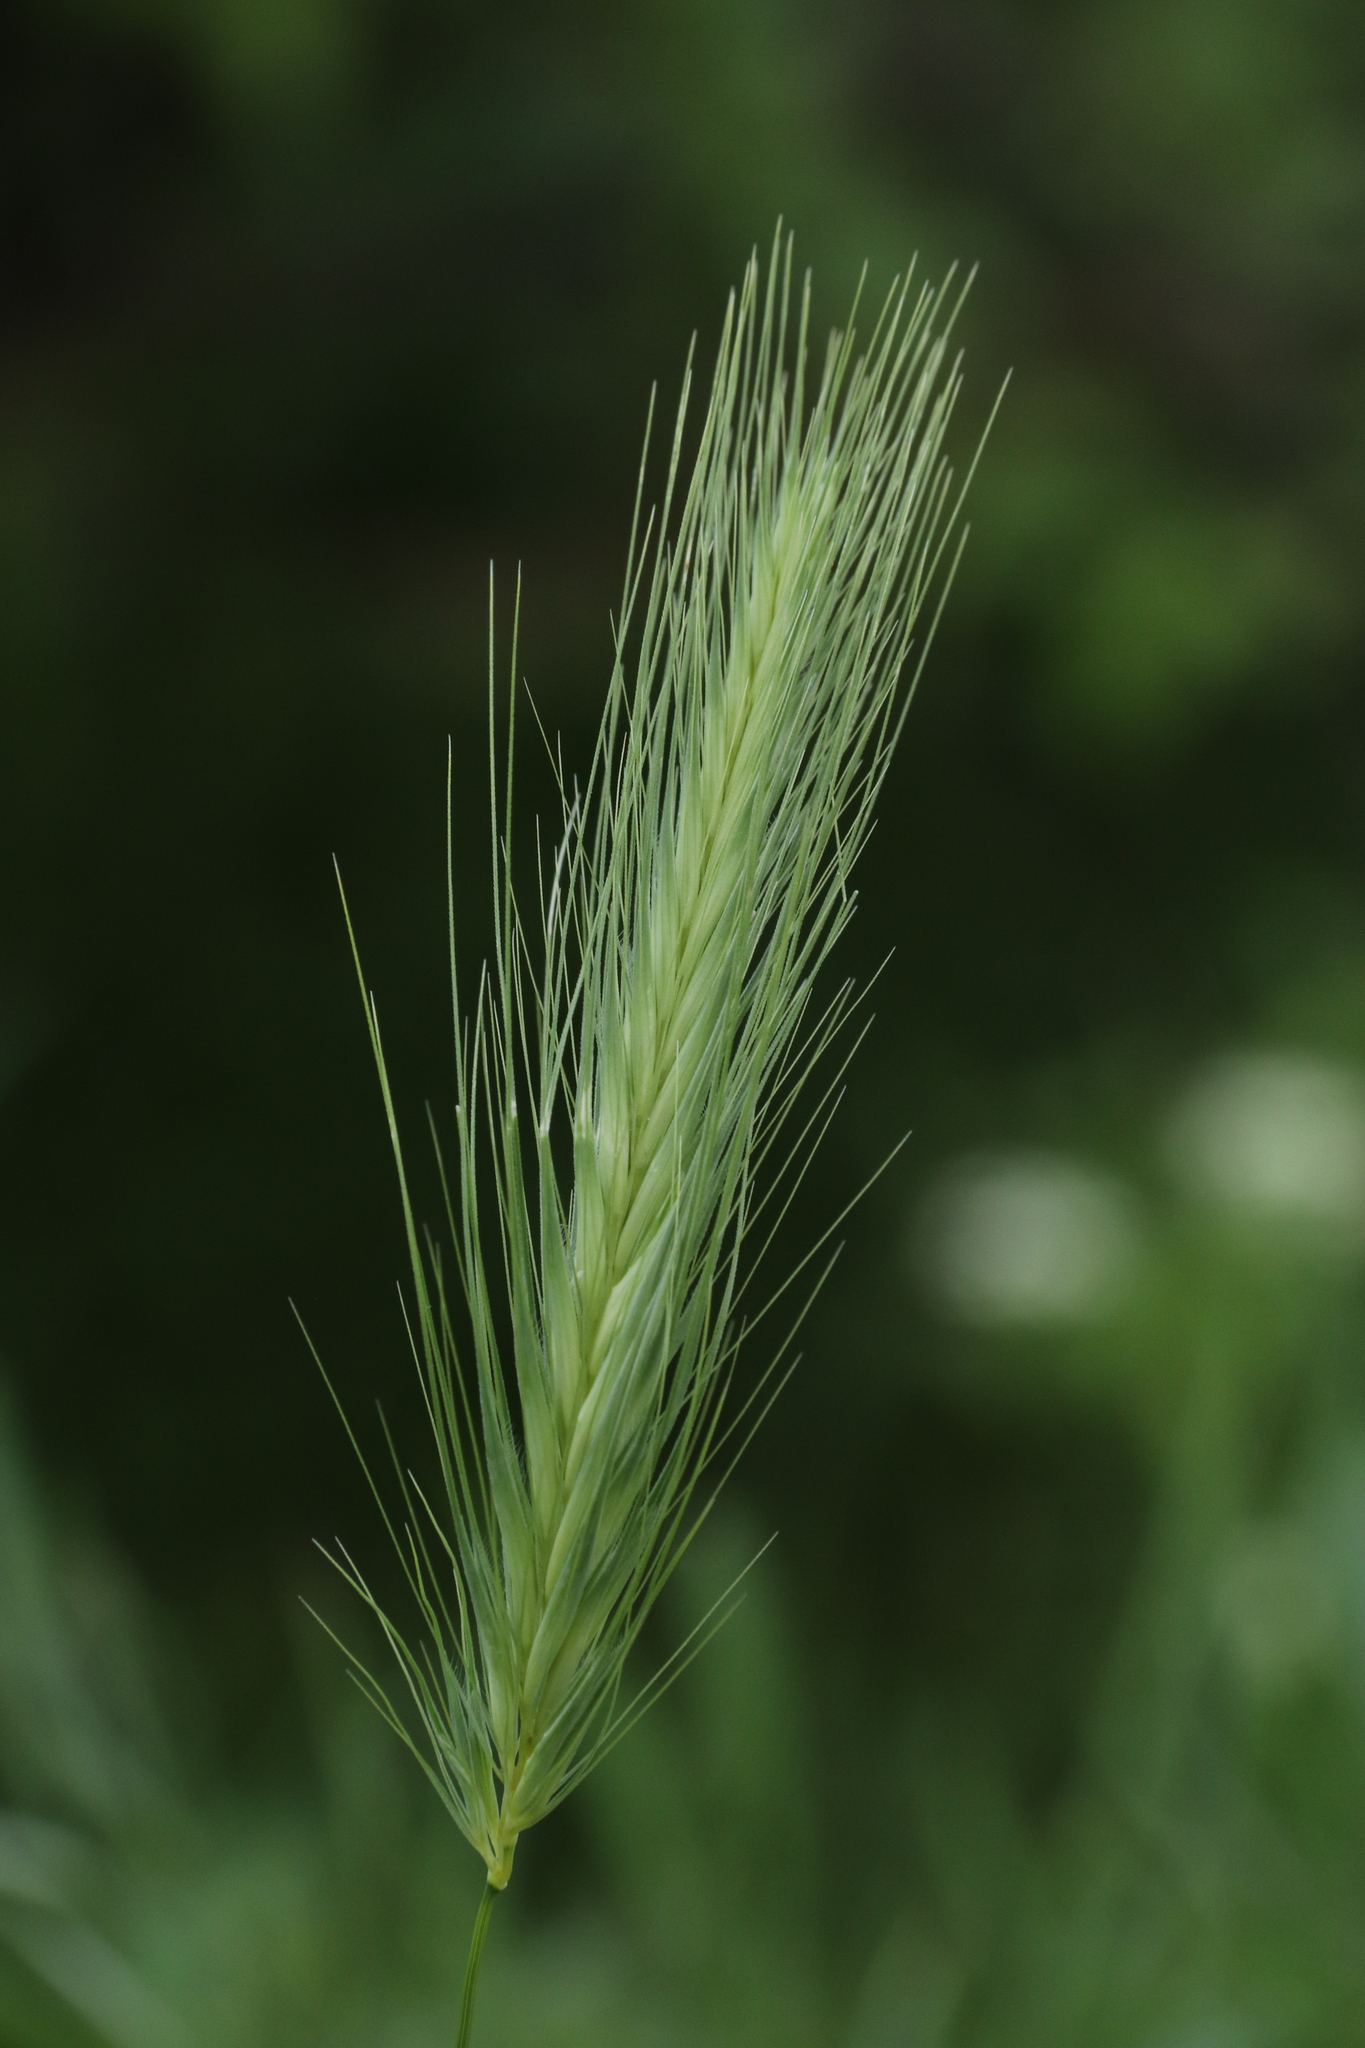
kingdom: Plantae
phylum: Tracheophyta
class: Liliopsida
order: Poales
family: Poaceae
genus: Hordeum
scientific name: Hordeum murinum
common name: Wall barley
